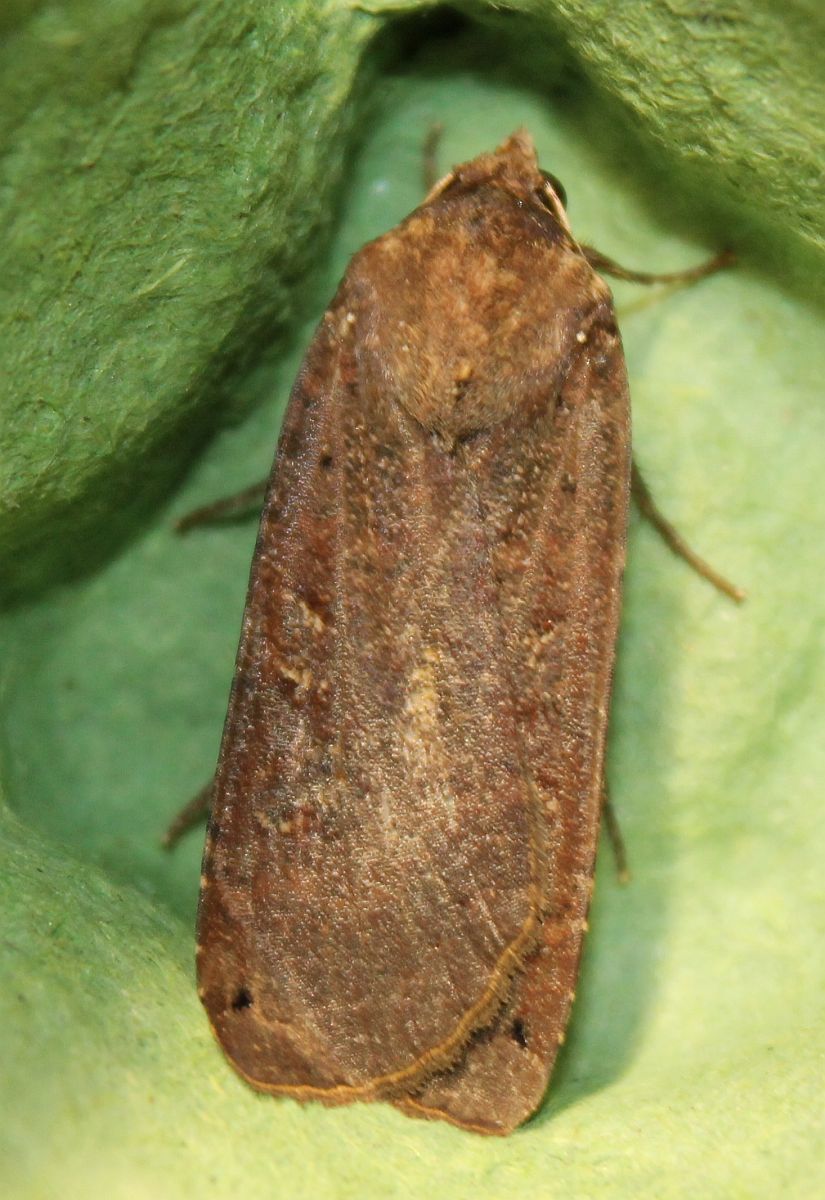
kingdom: Animalia
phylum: Arthropoda
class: Insecta
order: Lepidoptera
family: Noctuidae
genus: Noctua
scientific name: Noctua pronuba
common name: Large yellow underwing
